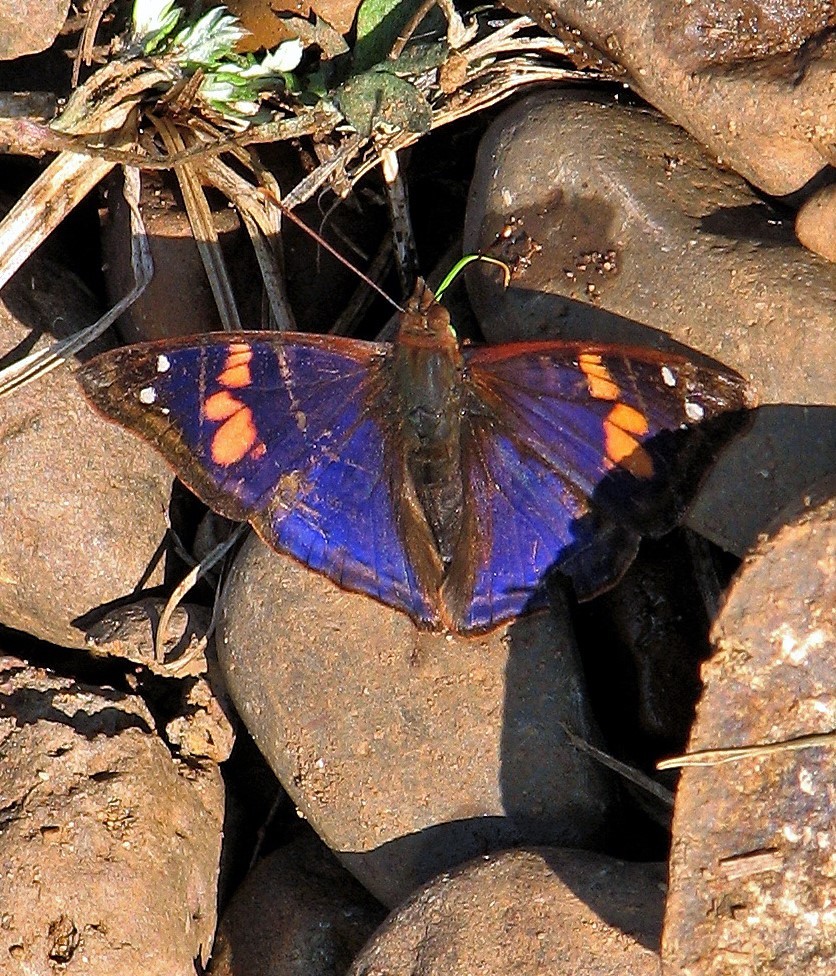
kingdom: Animalia
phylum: Arthropoda
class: Insecta
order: Lepidoptera
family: Nymphalidae
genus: Doxocopa
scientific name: Doxocopa agathina
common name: Agathina emperor
